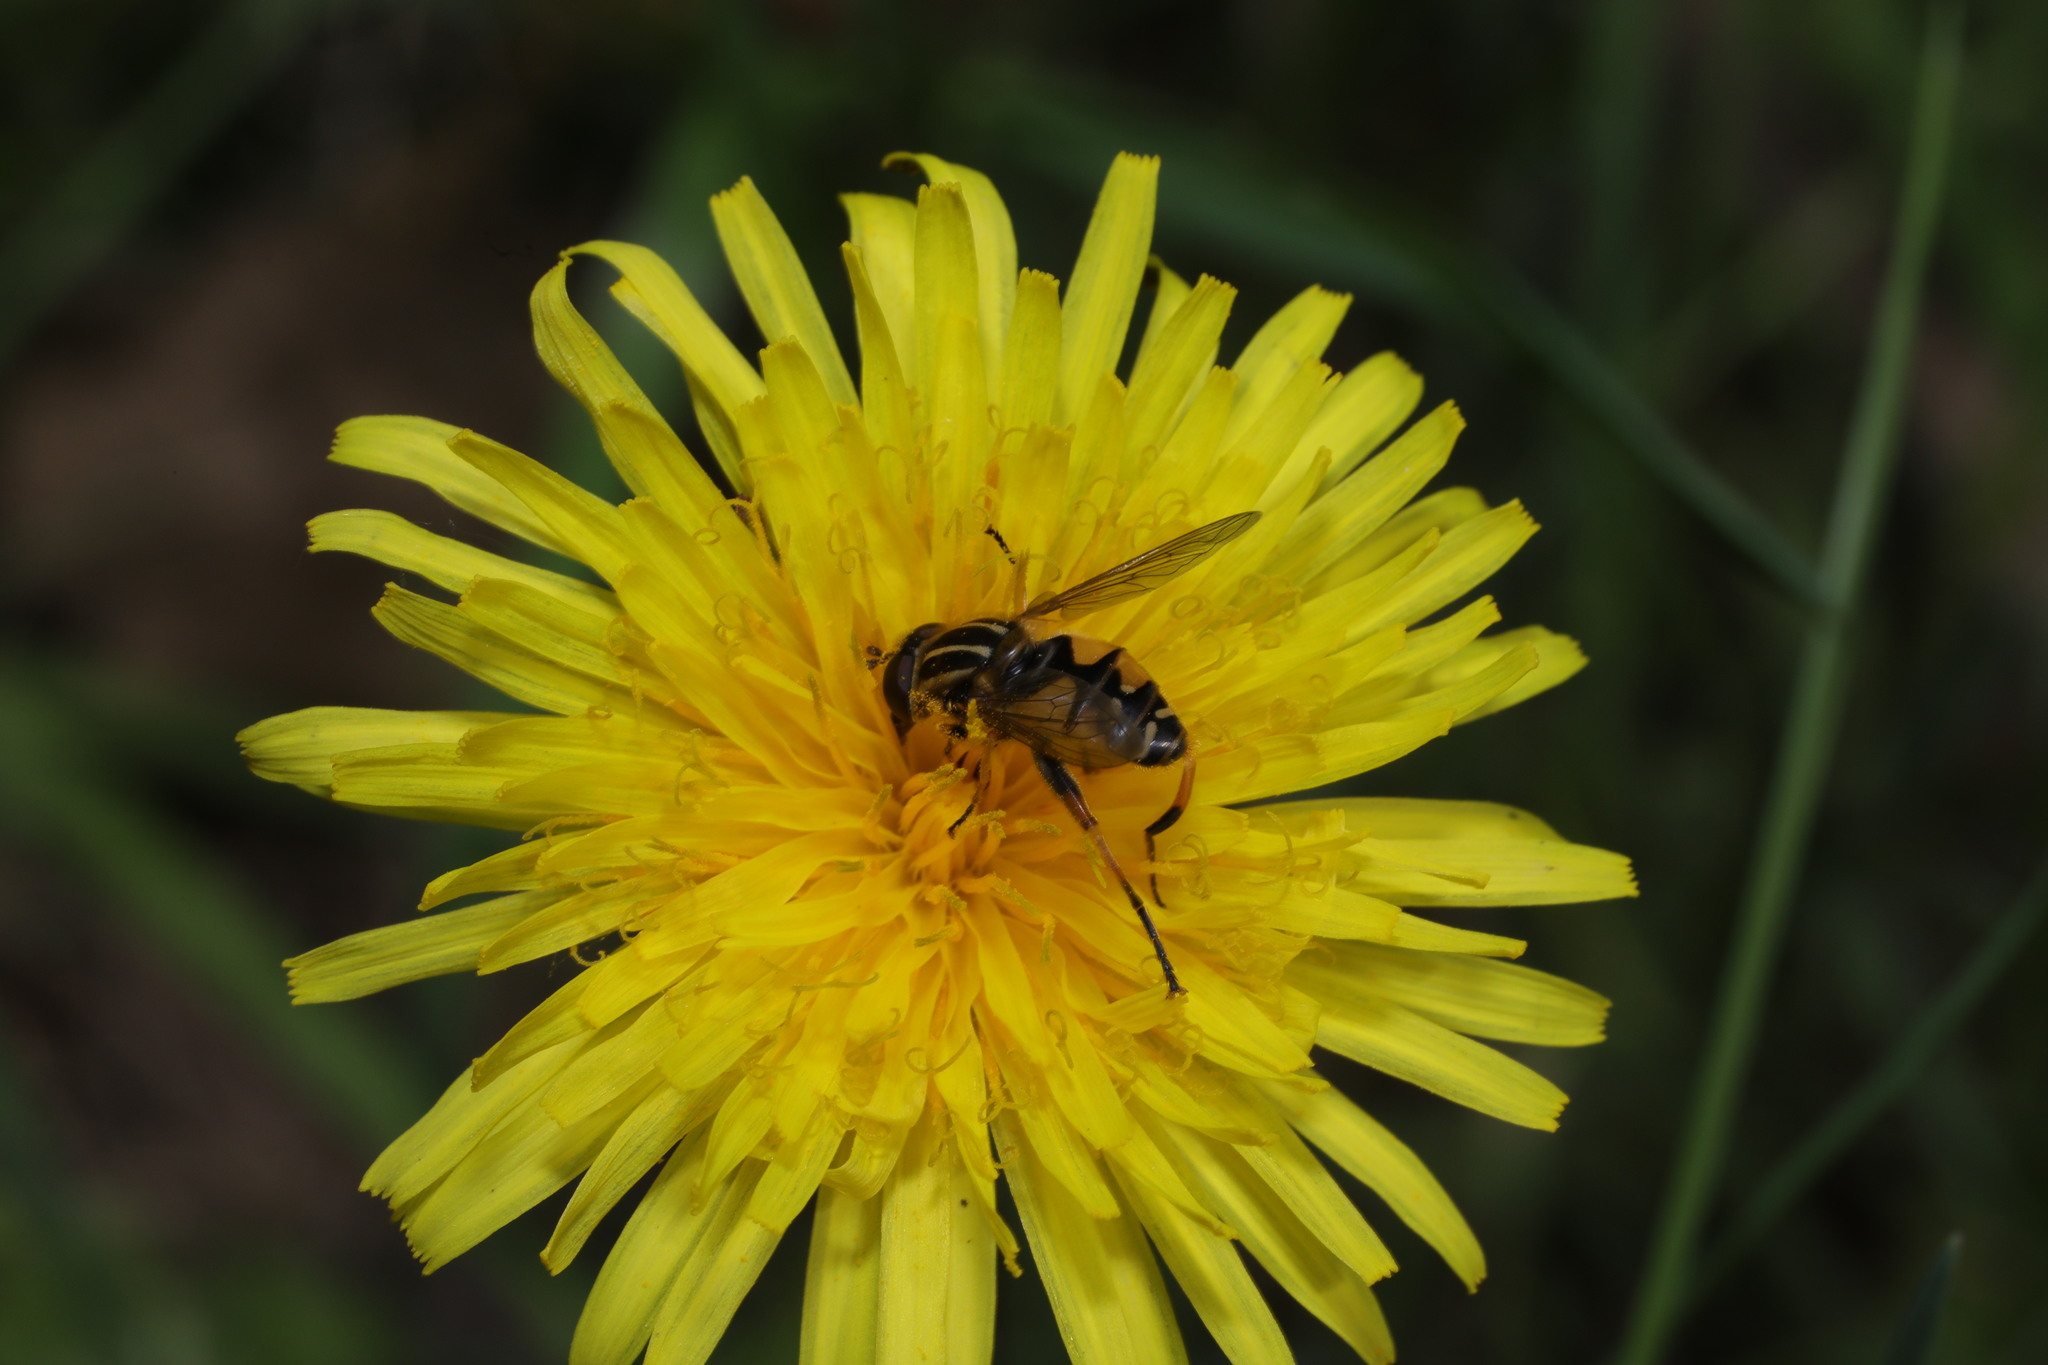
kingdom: Animalia
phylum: Arthropoda
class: Insecta
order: Diptera
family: Syrphidae
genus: Helophilus
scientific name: Helophilus pendulus
